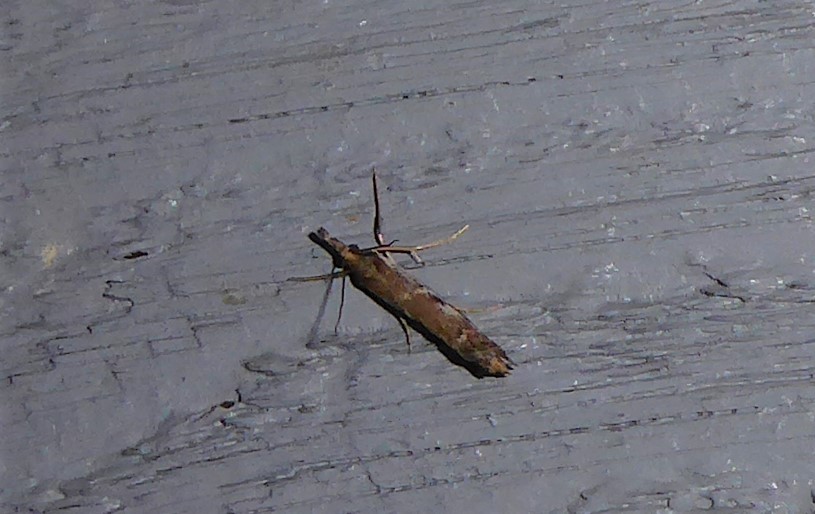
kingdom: Animalia
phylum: Arthropoda
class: Insecta
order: Lepidoptera
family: Crambidae
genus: Orocrambus
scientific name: Orocrambus vulgaris
